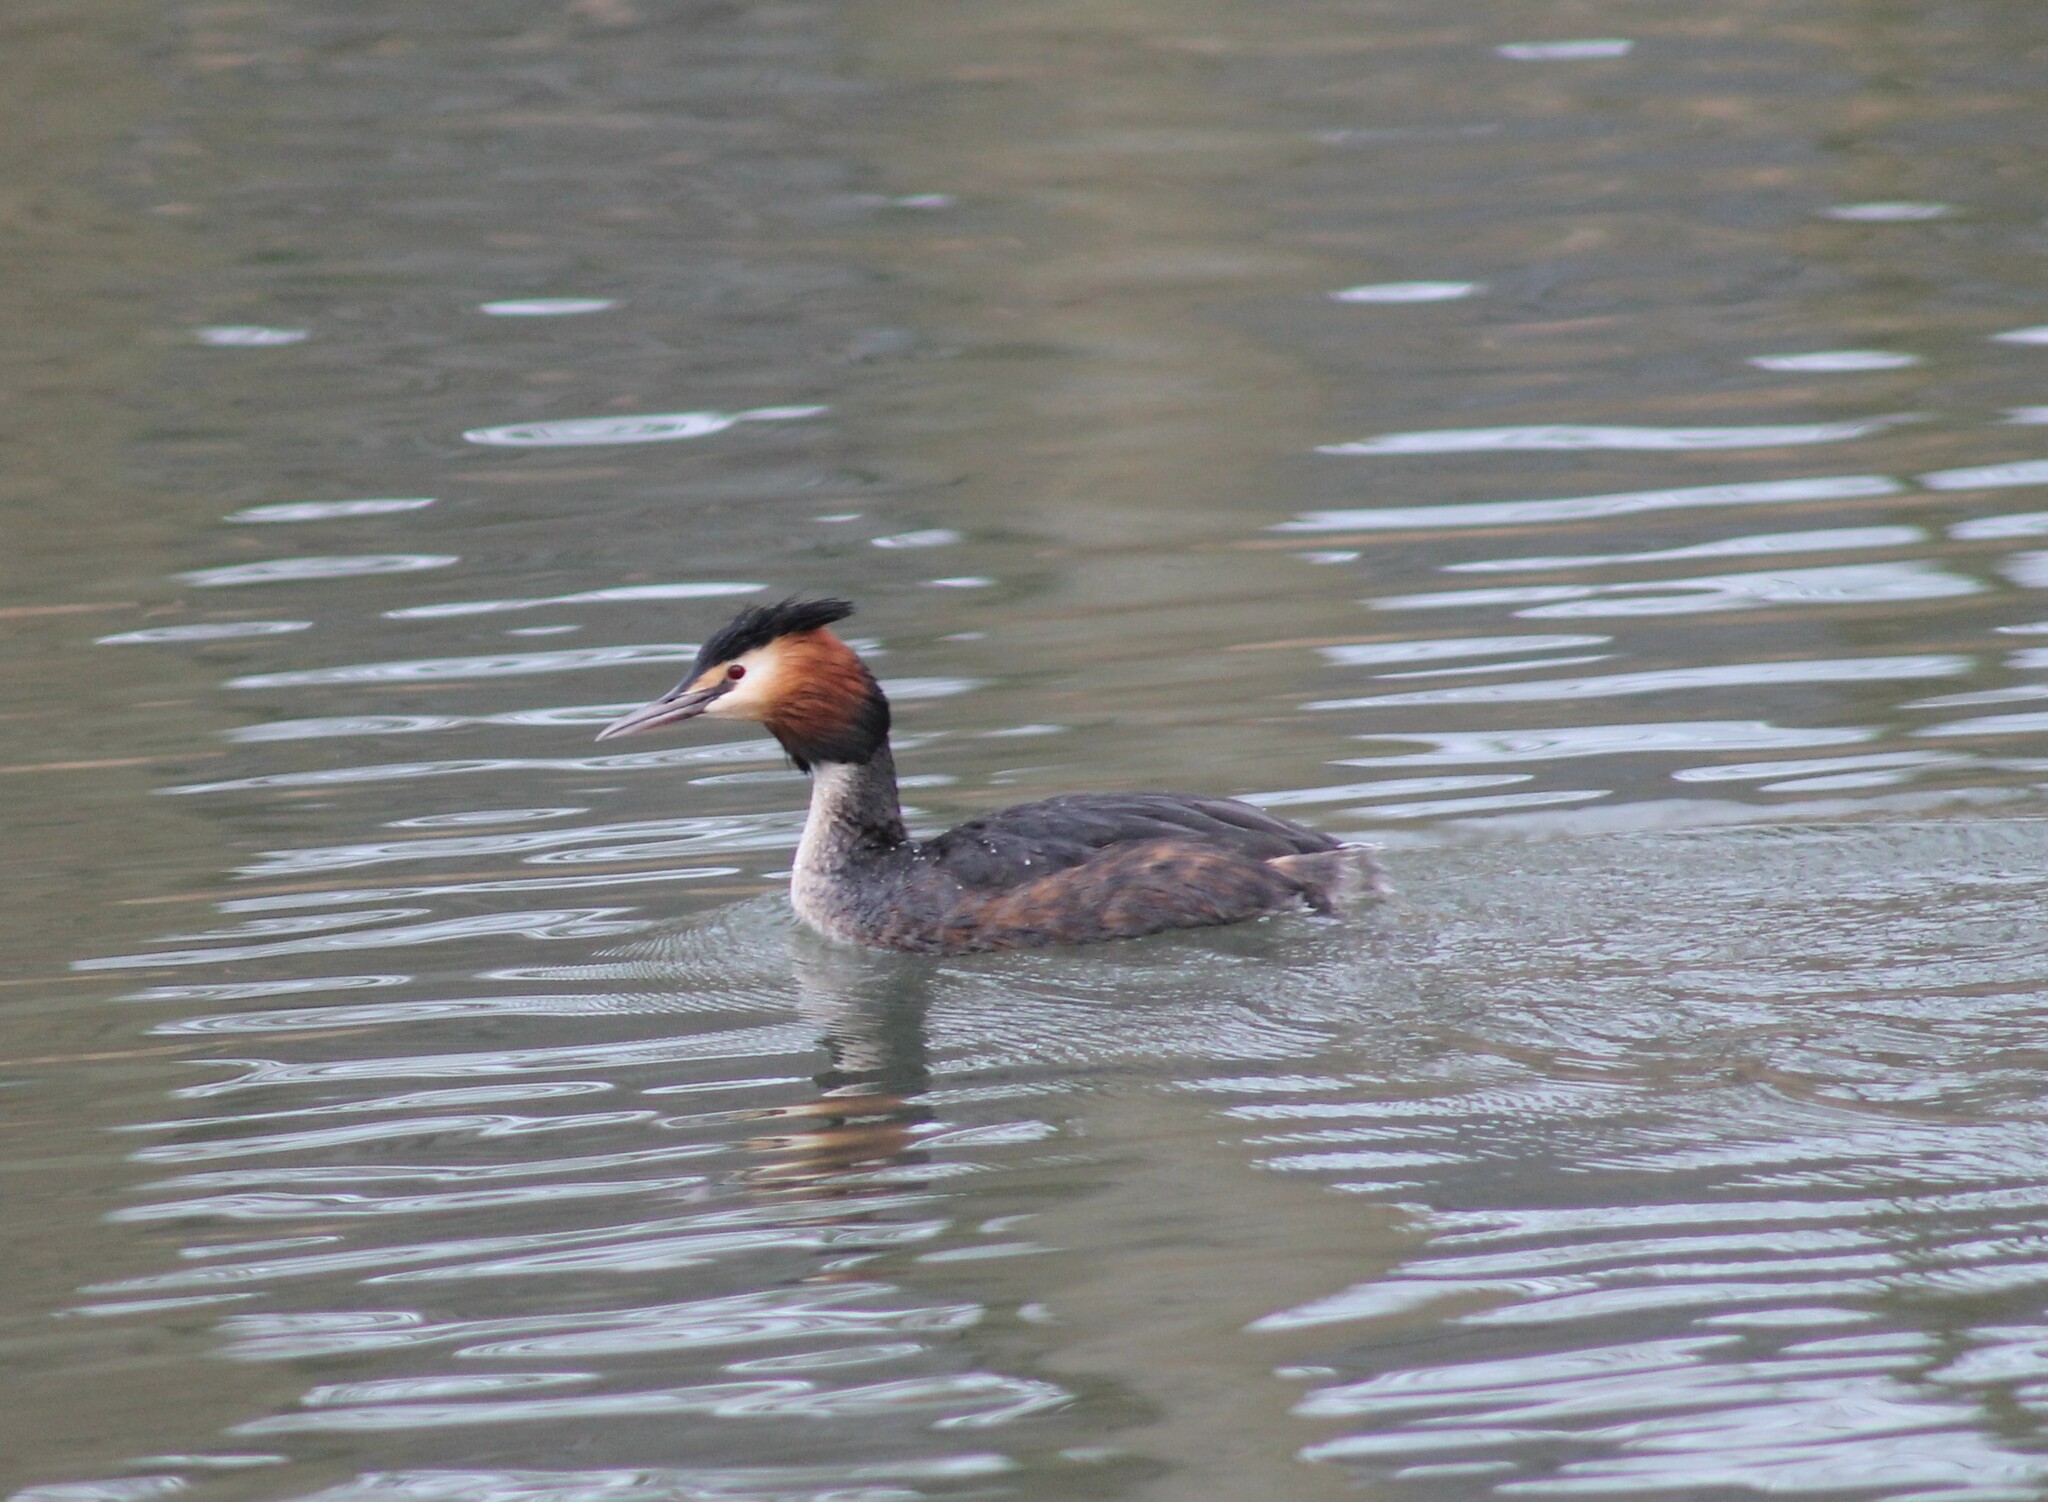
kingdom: Animalia
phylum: Chordata
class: Aves
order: Podicipediformes
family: Podicipedidae
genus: Podiceps
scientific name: Podiceps cristatus
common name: Great crested grebe
